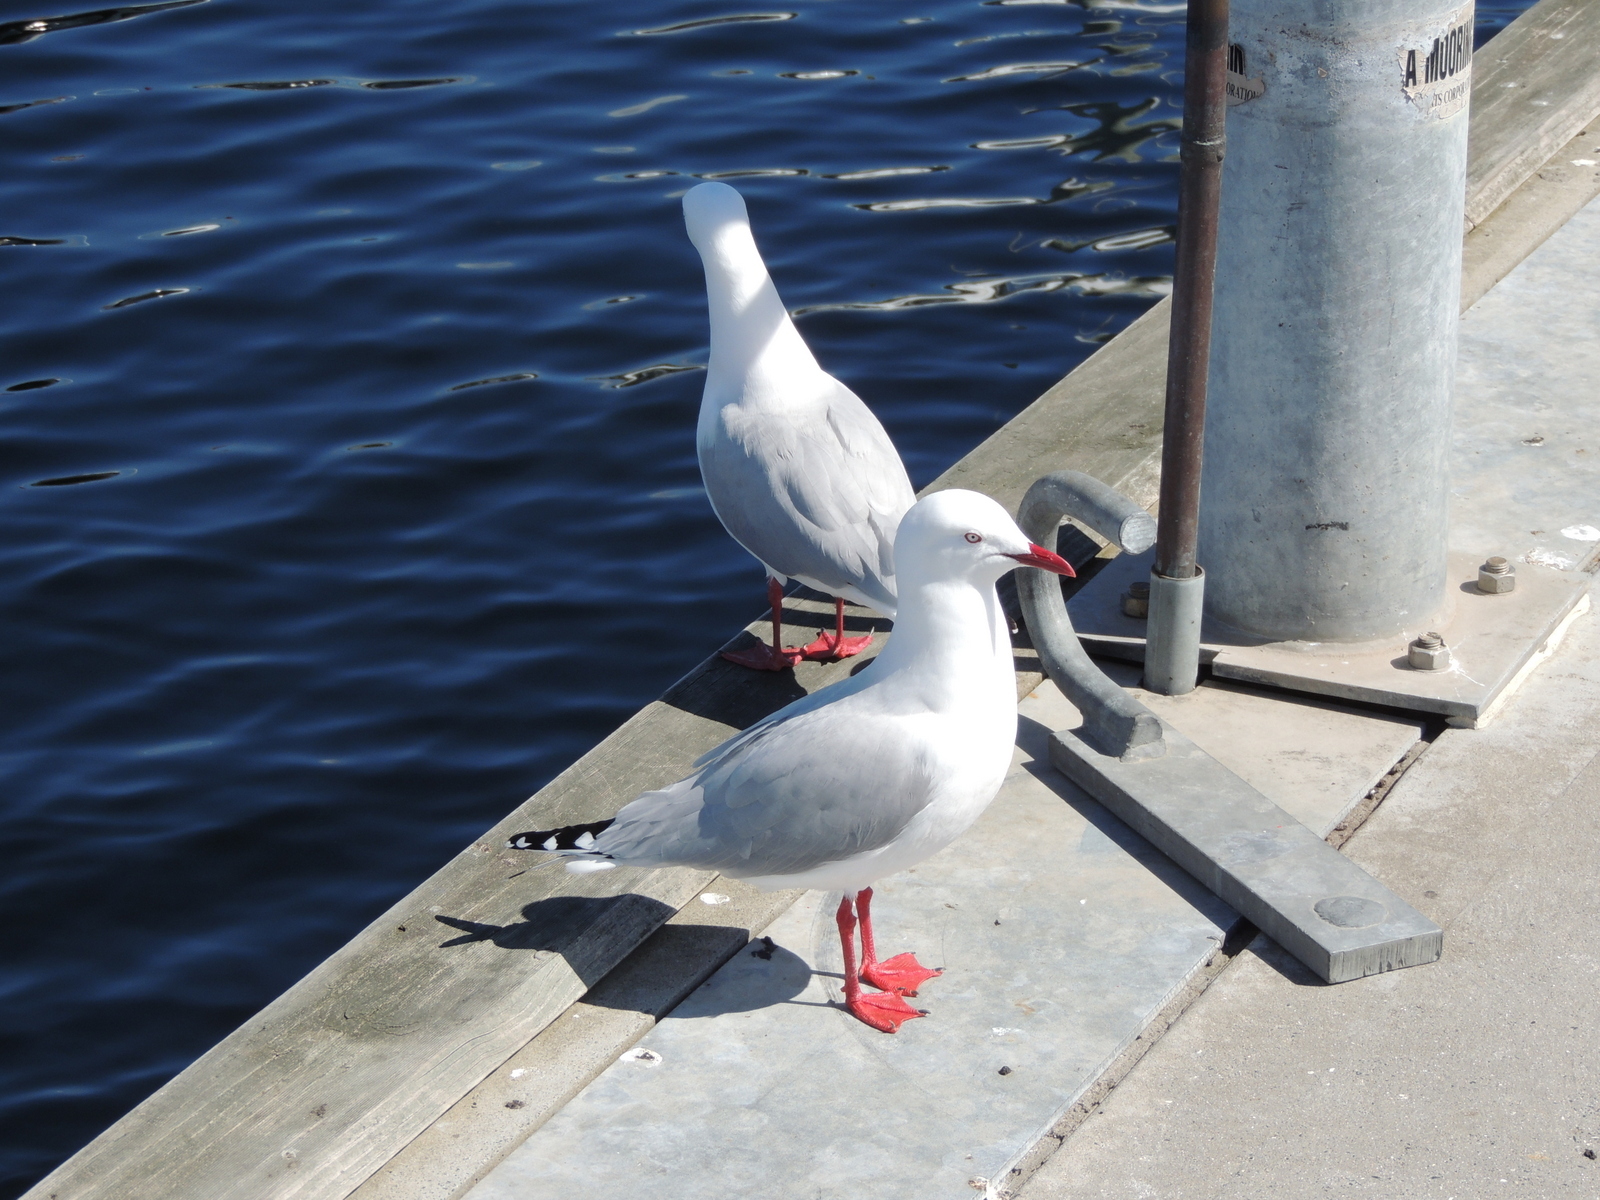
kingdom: Animalia
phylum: Chordata
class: Aves
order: Charadriiformes
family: Laridae
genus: Chroicocephalus
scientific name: Chroicocephalus novaehollandiae
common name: Silver gull
